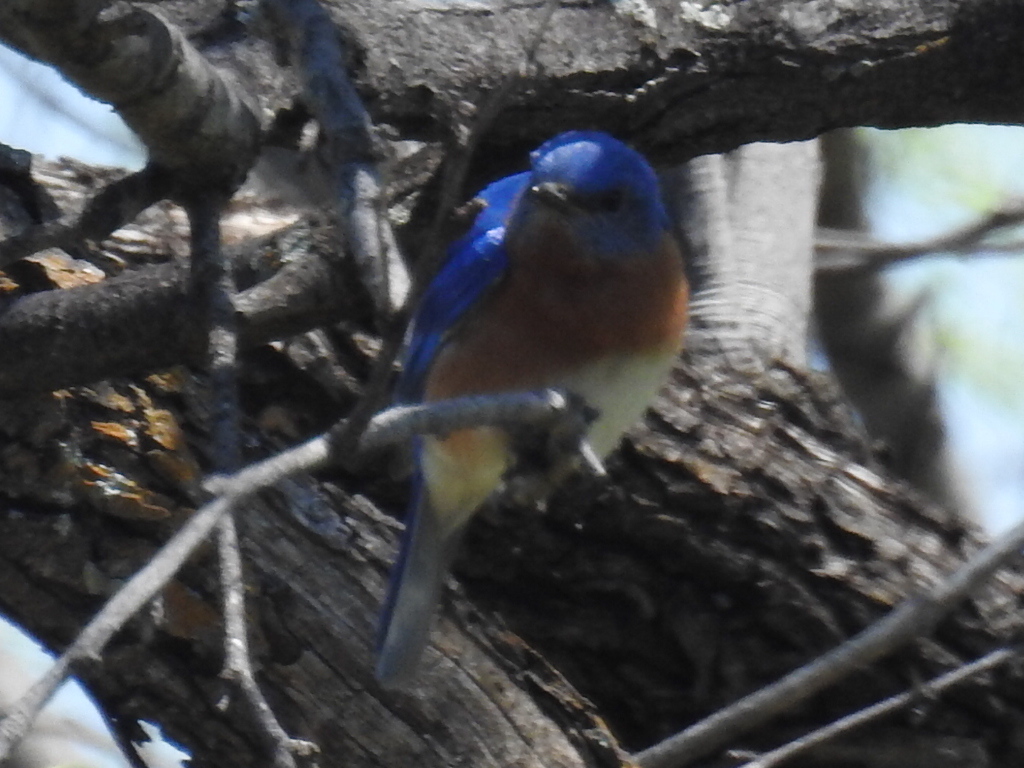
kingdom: Animalia
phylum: Chordata
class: Aves
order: Passeriformes
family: Turdidae
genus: Sialia
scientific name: Sialia sialis
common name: Eastern bluebird
